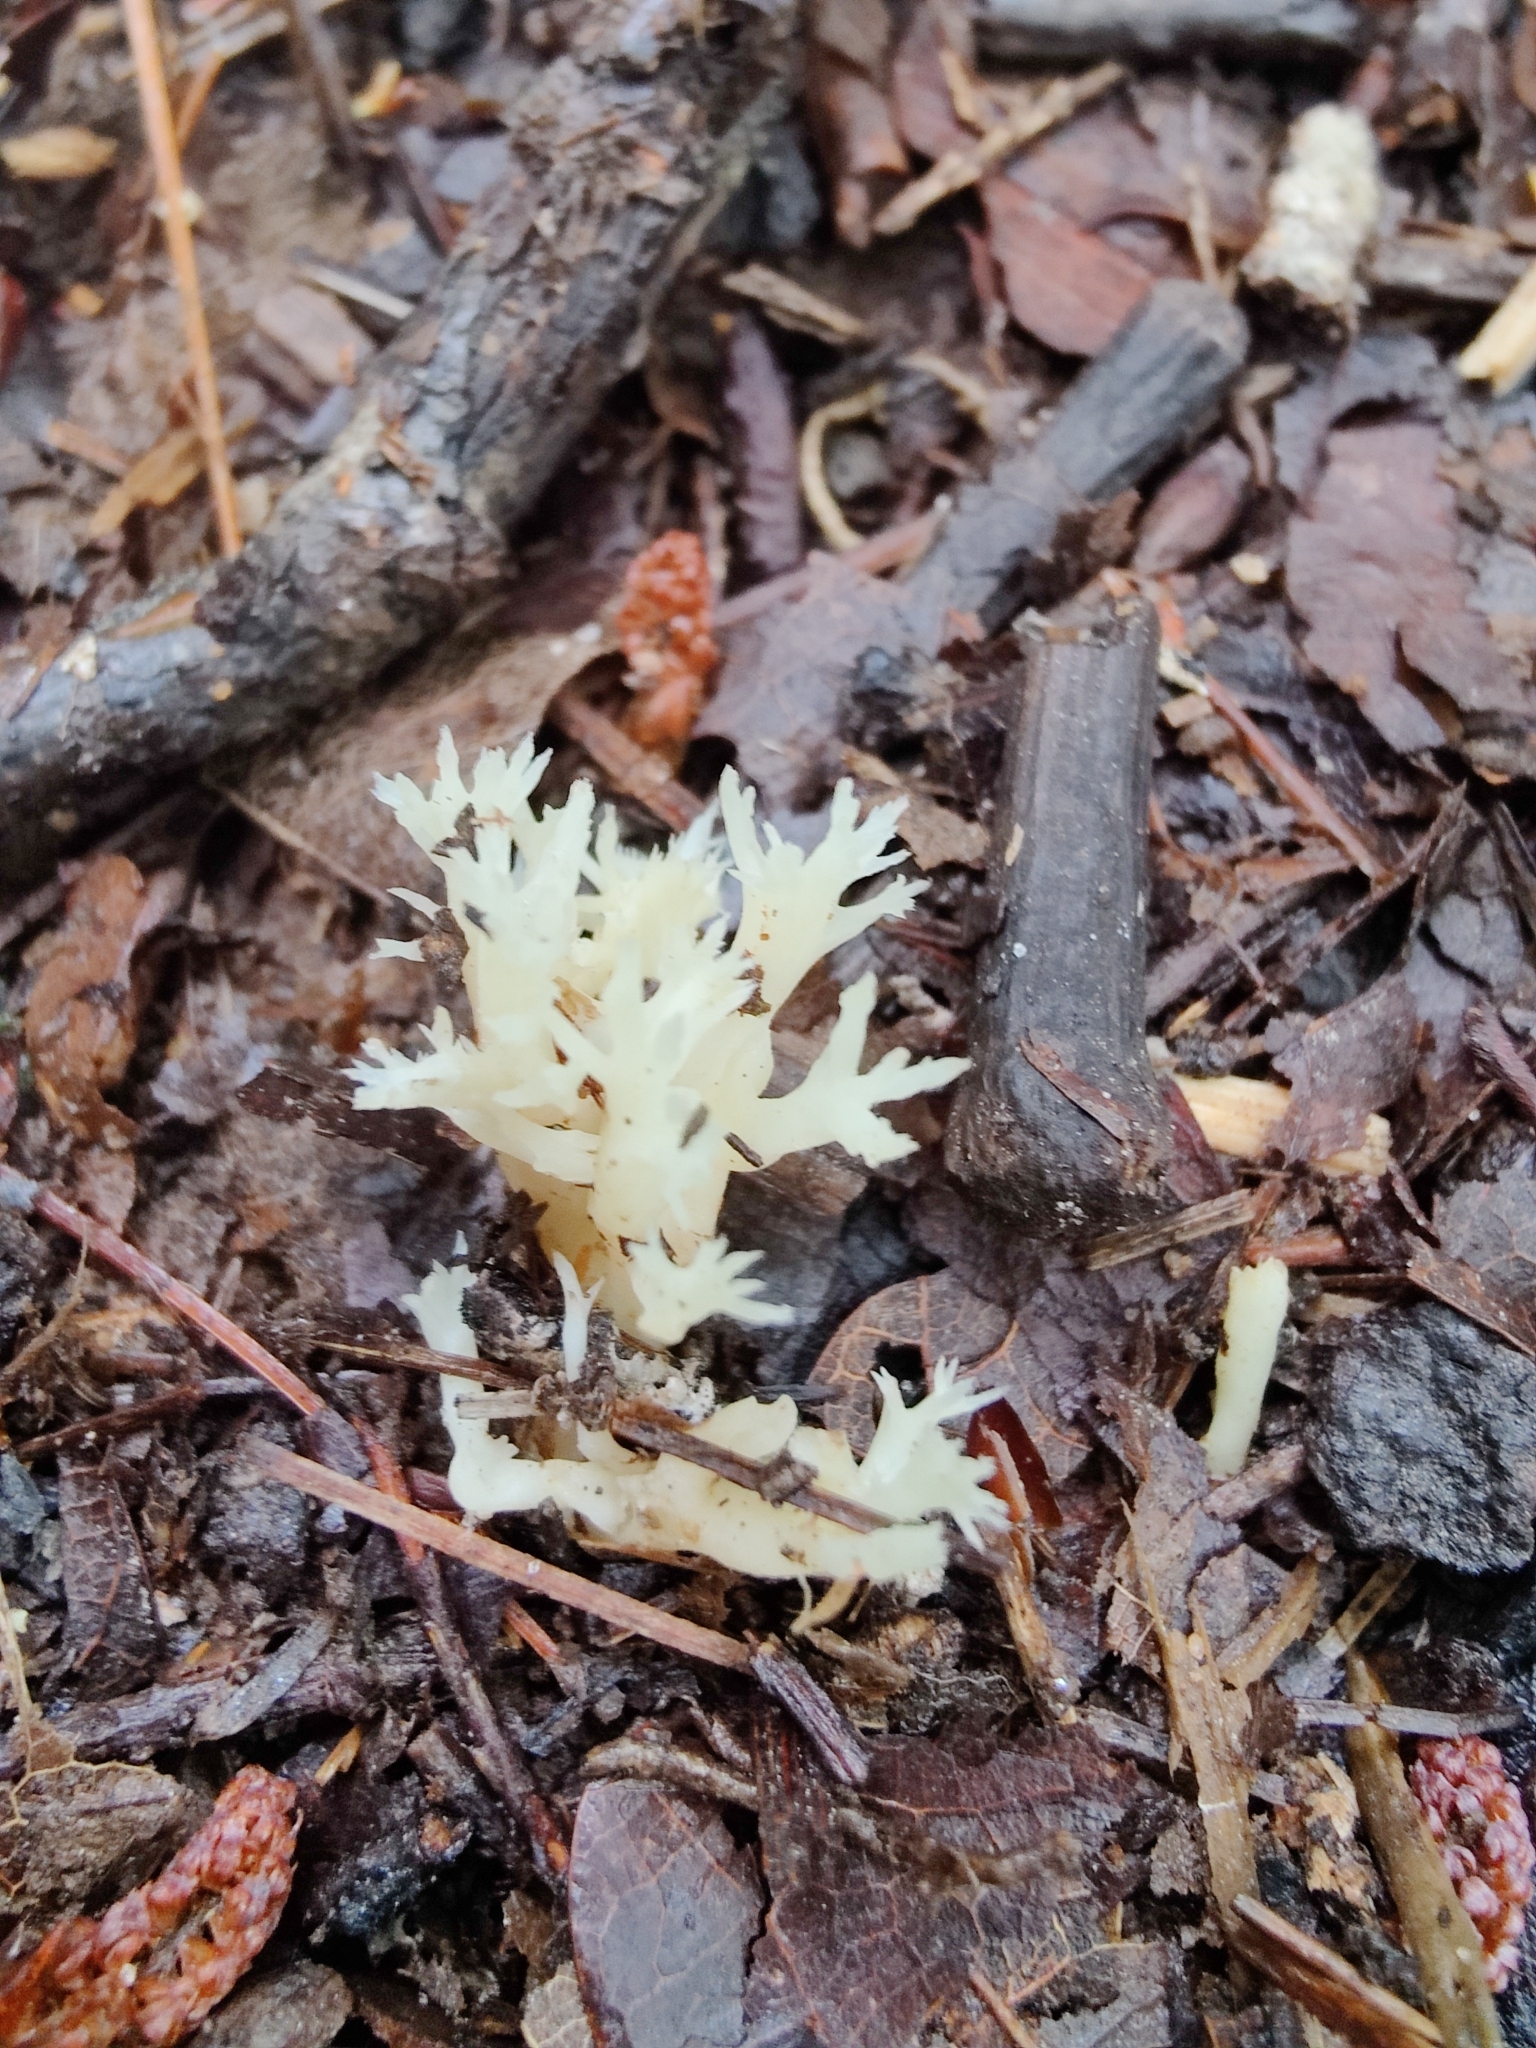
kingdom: Fungi
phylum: Basidiomycota
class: Agaricomycetes
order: Cantharellales
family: Hydnaceae
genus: Clavulina
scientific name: Clavulina coralloides
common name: Crested coral
